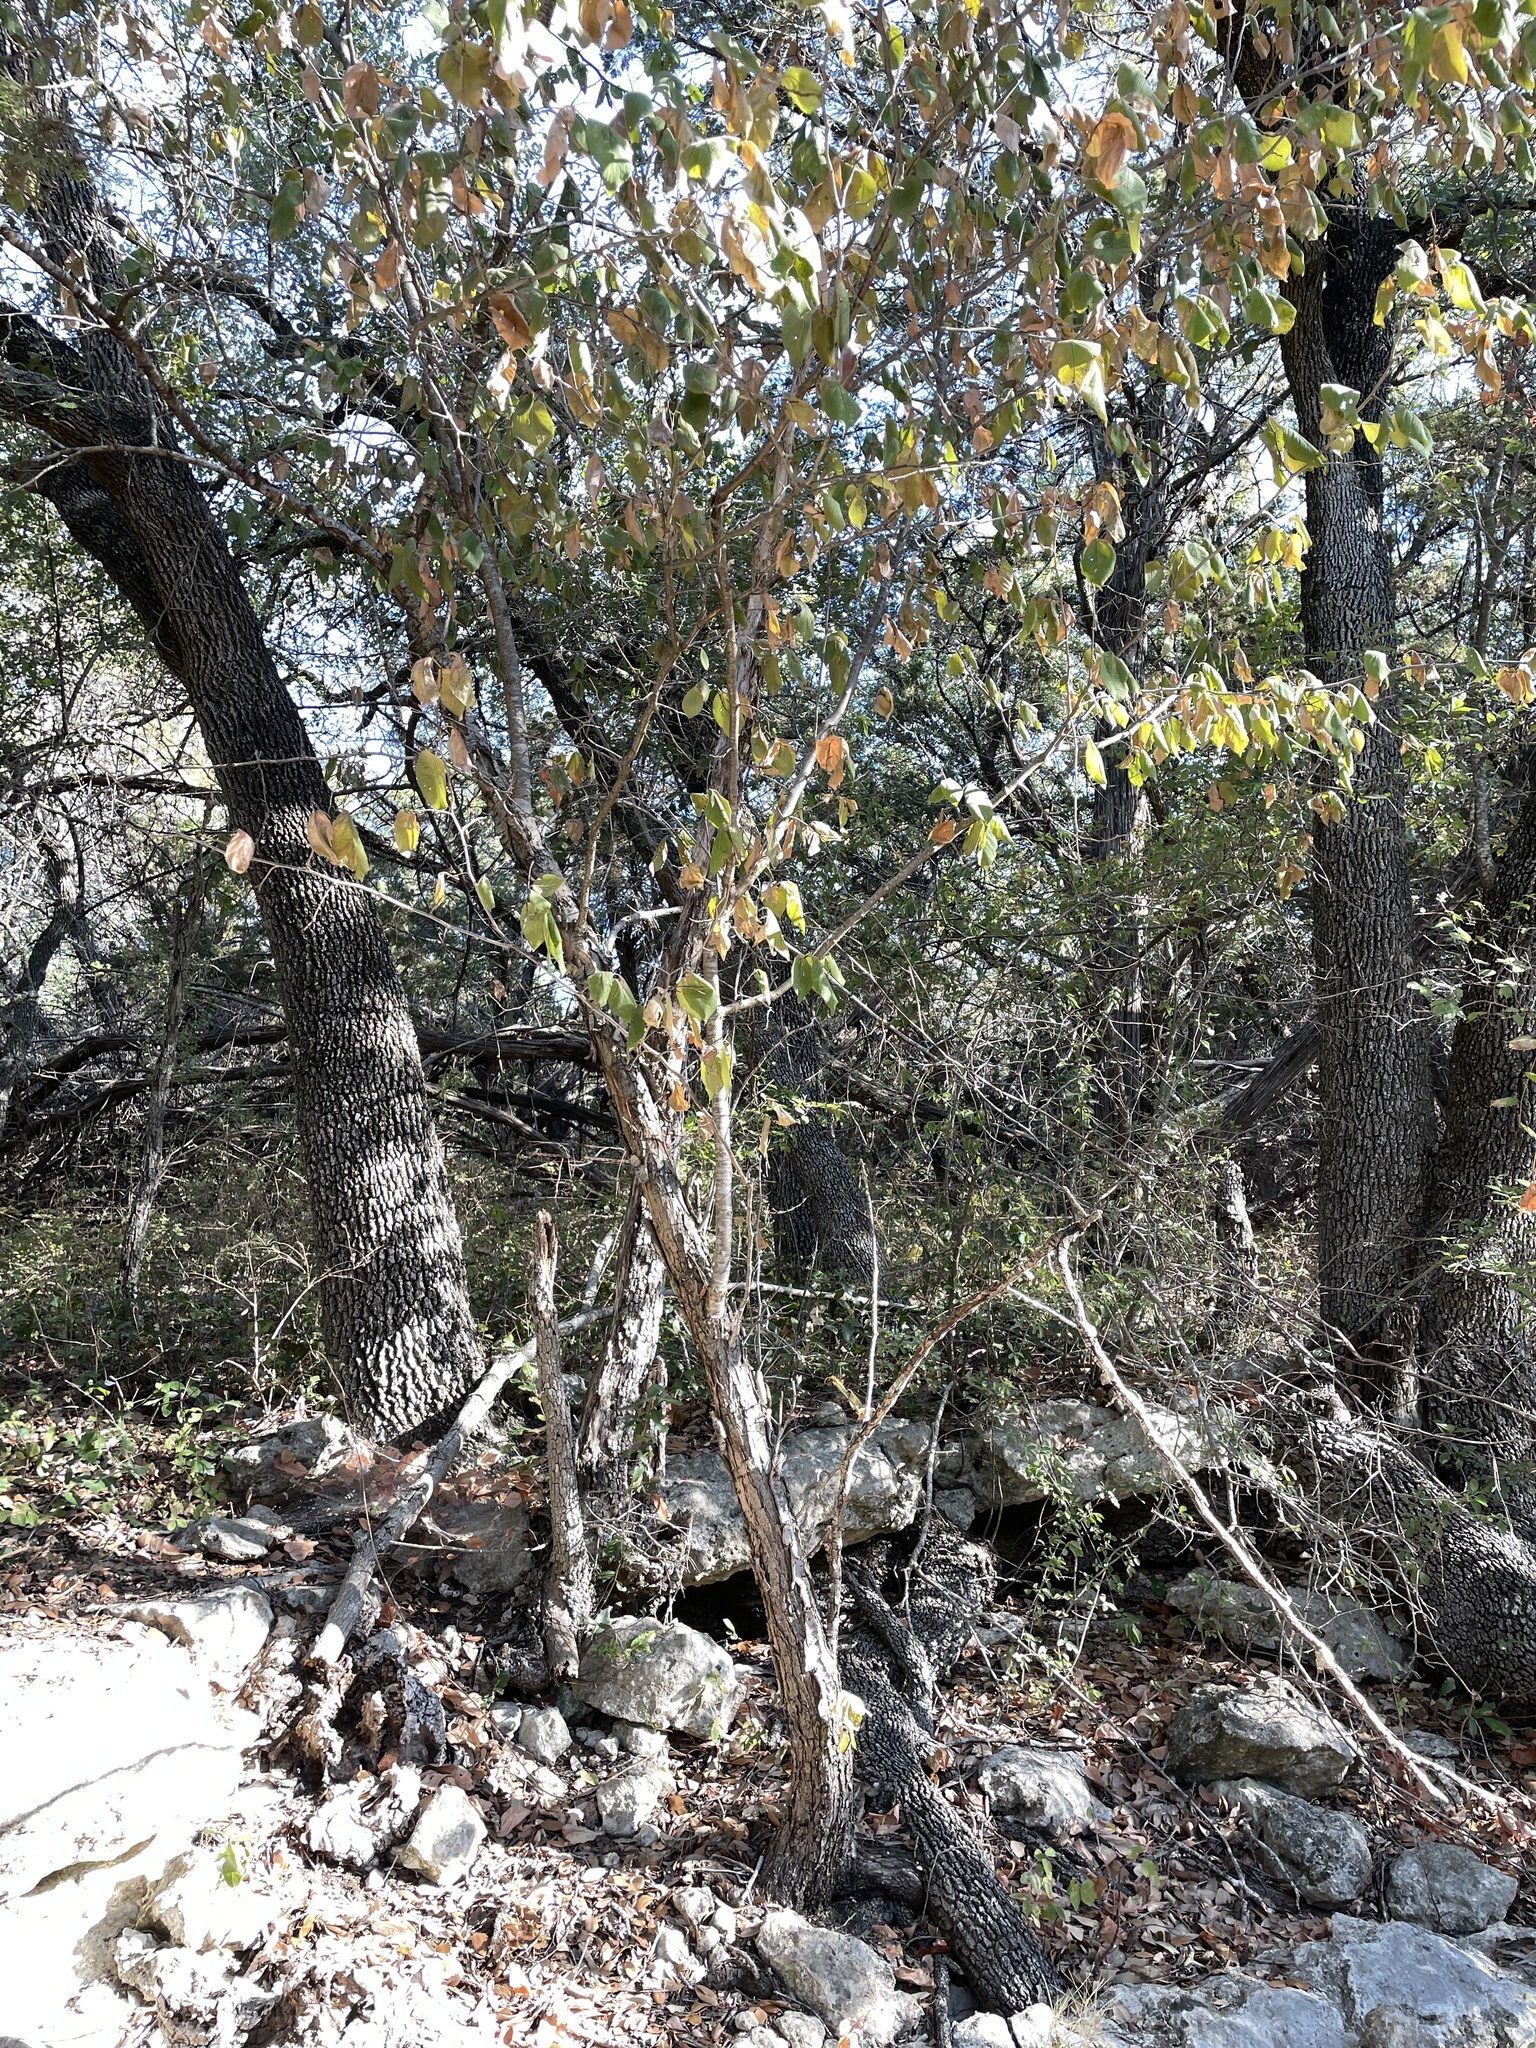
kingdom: Plantae
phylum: Tracheophyta
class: Magnoliopsida
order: Rosales
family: Rosaceae
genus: Prunus
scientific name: Prunus mexicana
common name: Mexican plum
